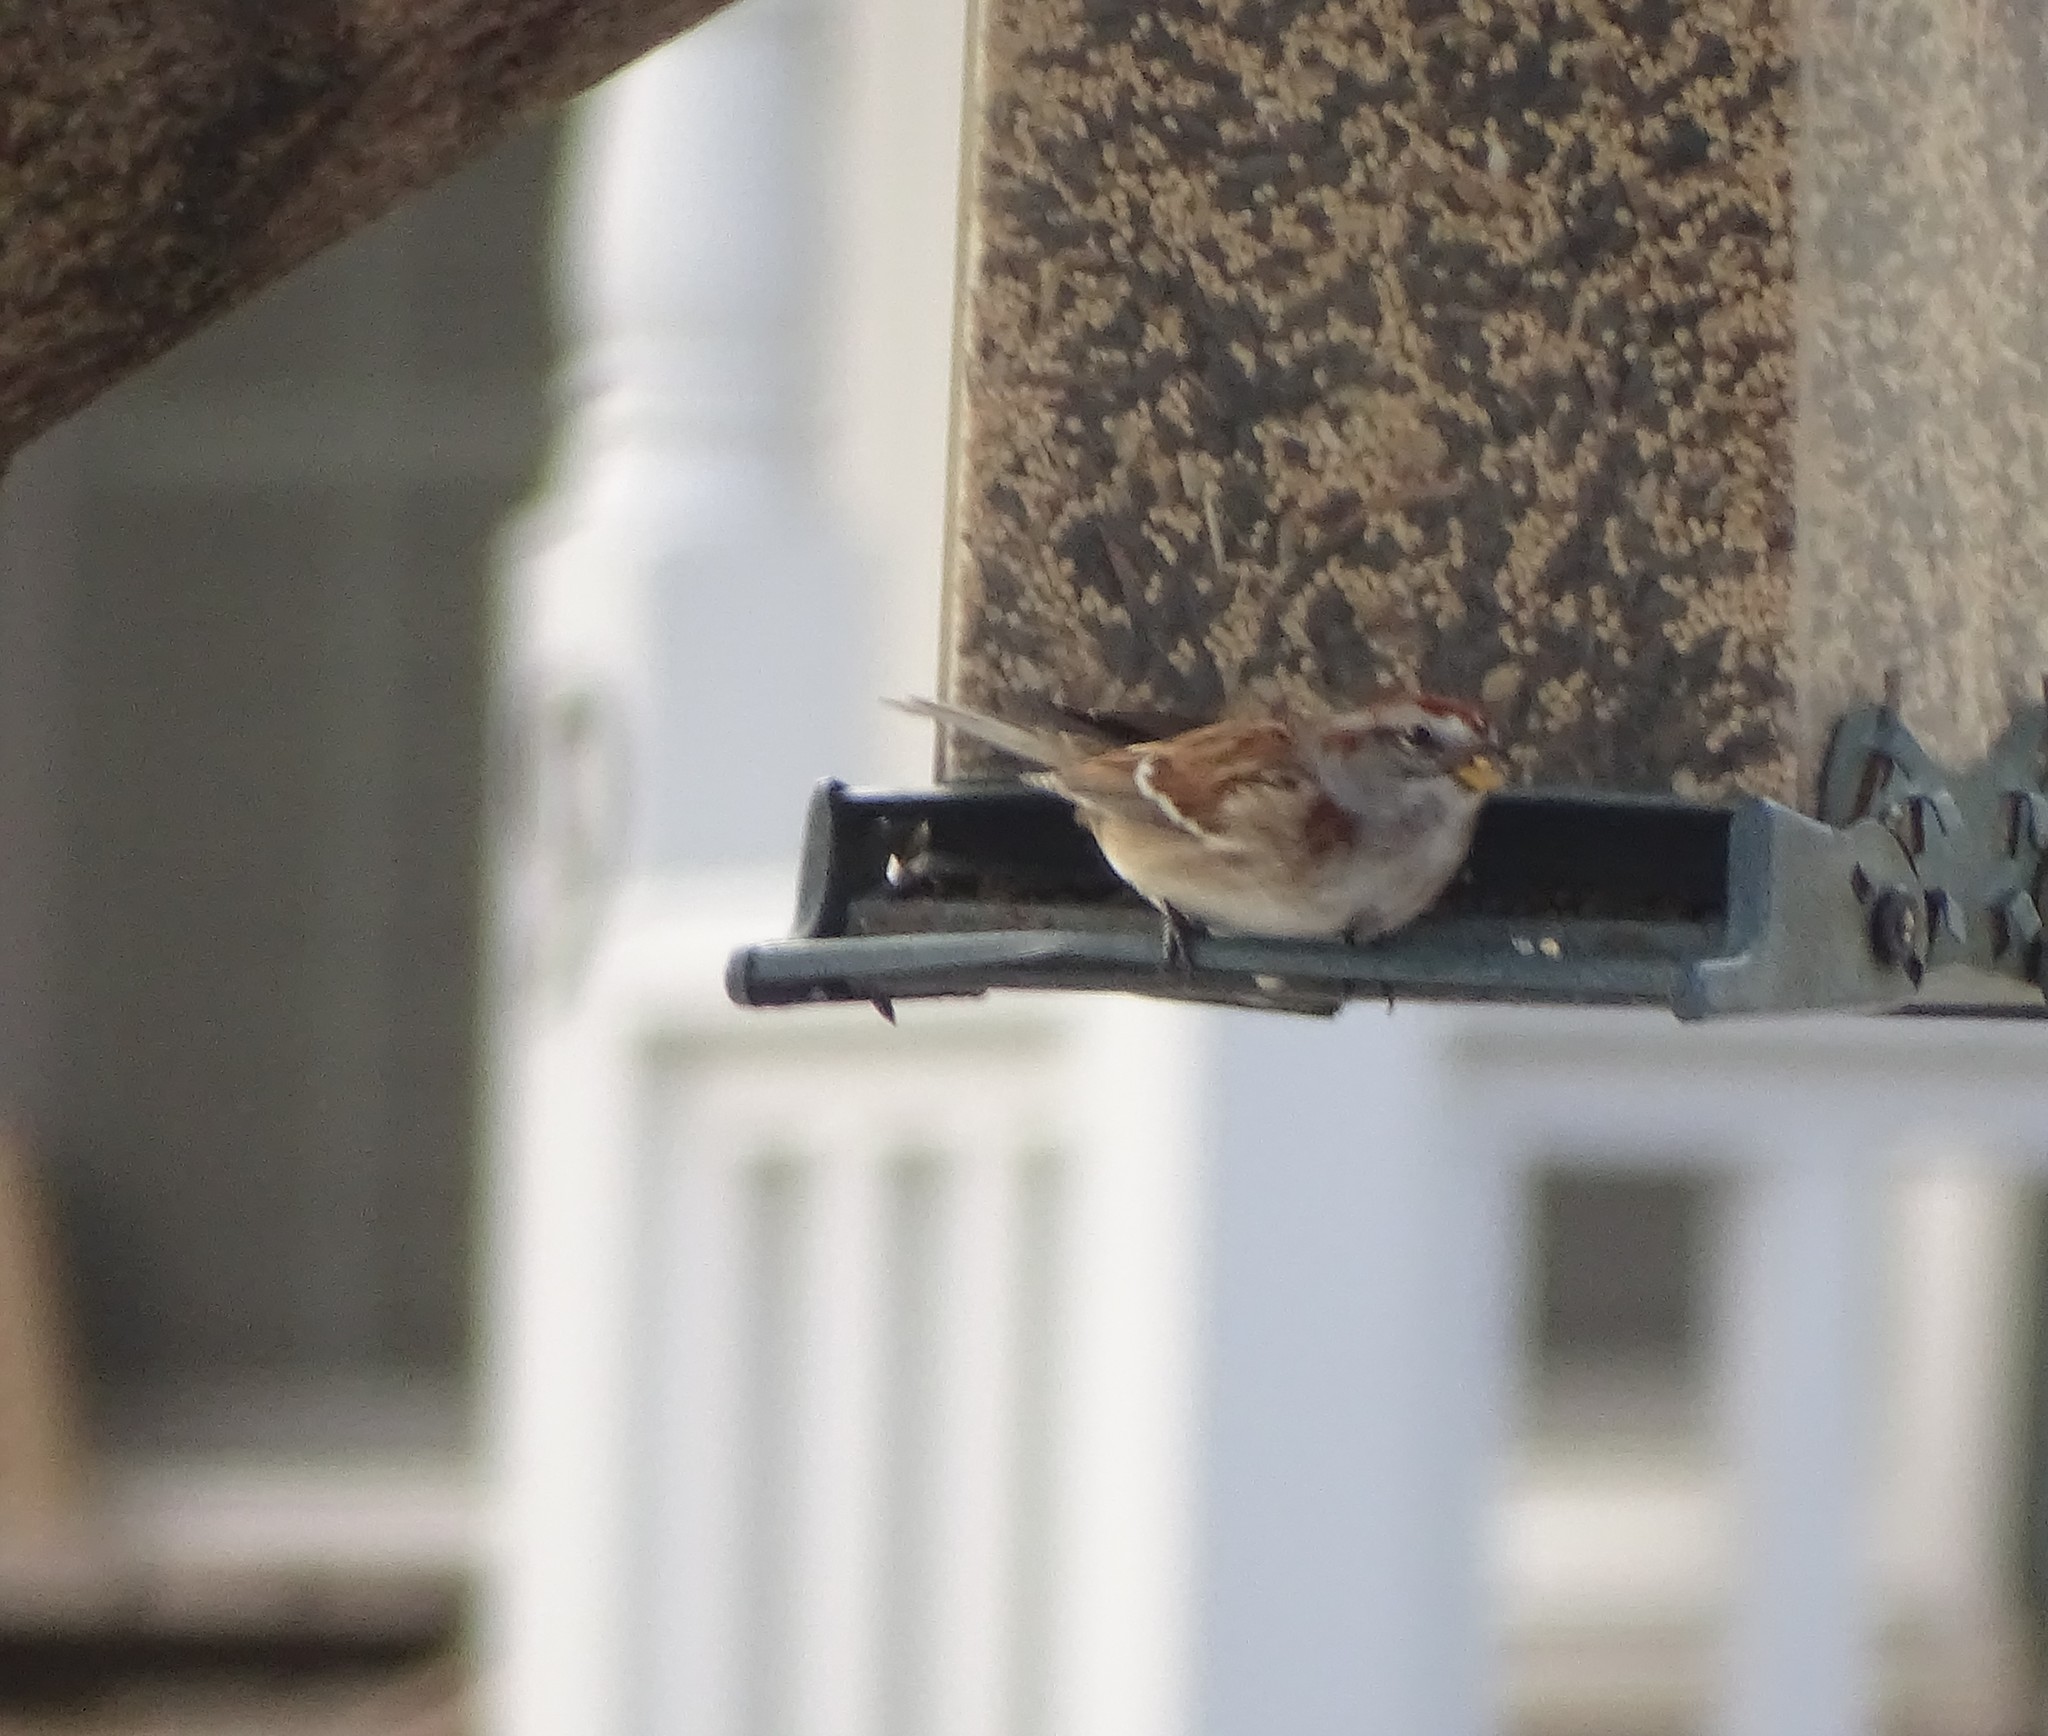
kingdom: Animalia
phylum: Chordata
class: Aves
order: Passeriformes
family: Passerellidae
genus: Spizelloides
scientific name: Spizelloides arborea
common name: American tree sparrow
